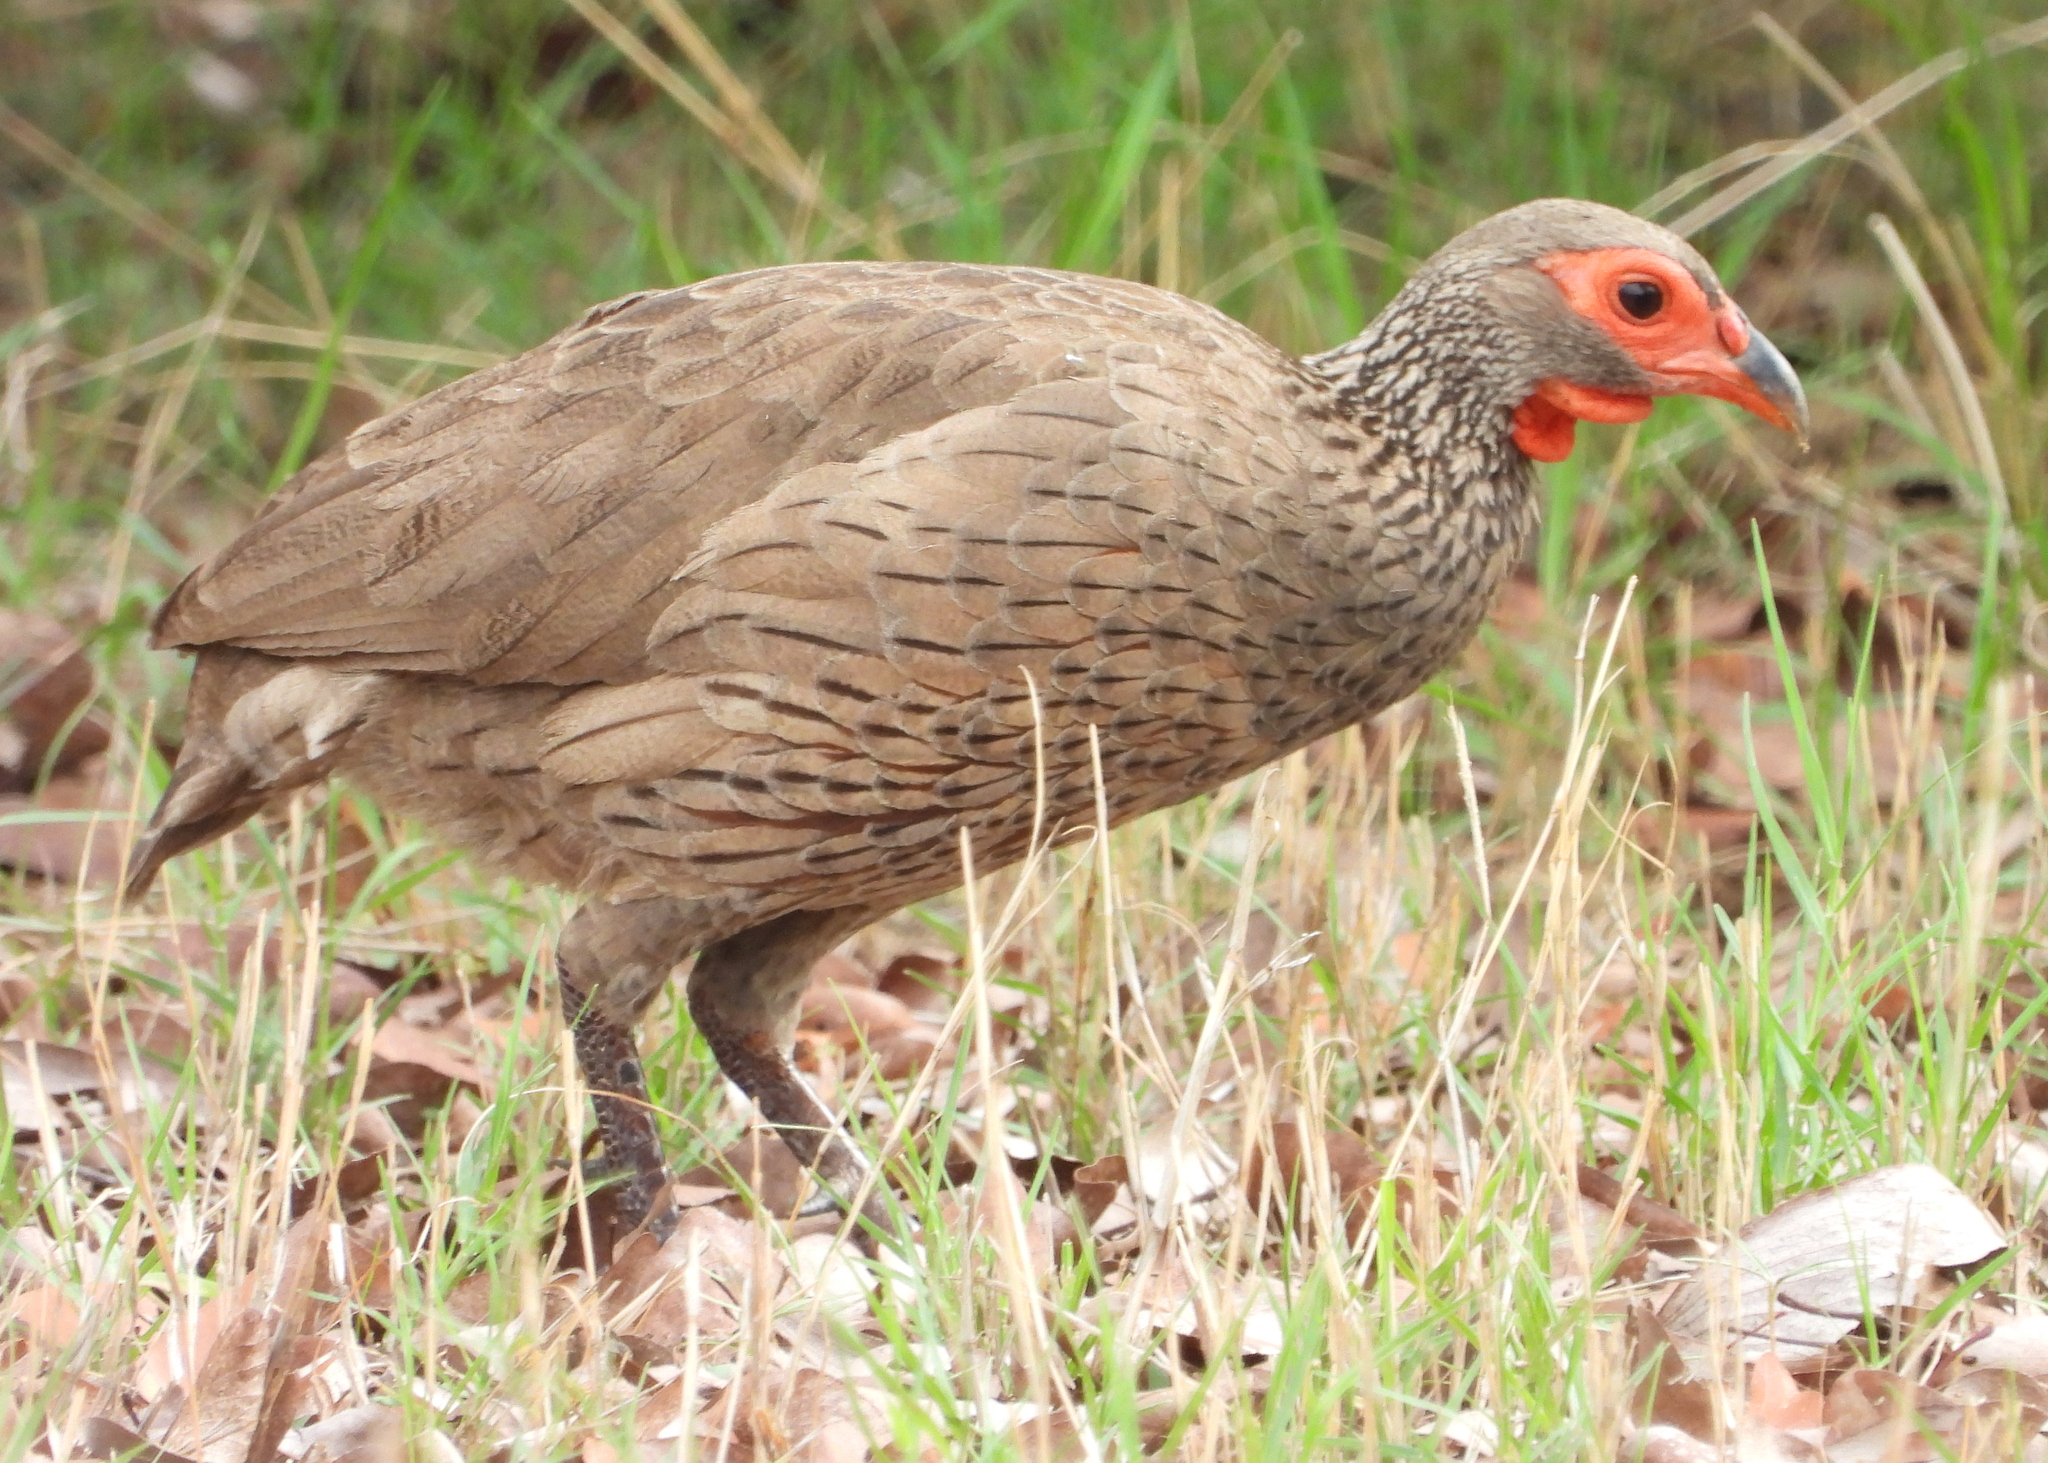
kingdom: Animalia
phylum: Chordata
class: Aves
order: Galliformes
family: Phasianidae
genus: Pternistis
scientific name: Pternistis swainsonii
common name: Swainson's spurfowl
